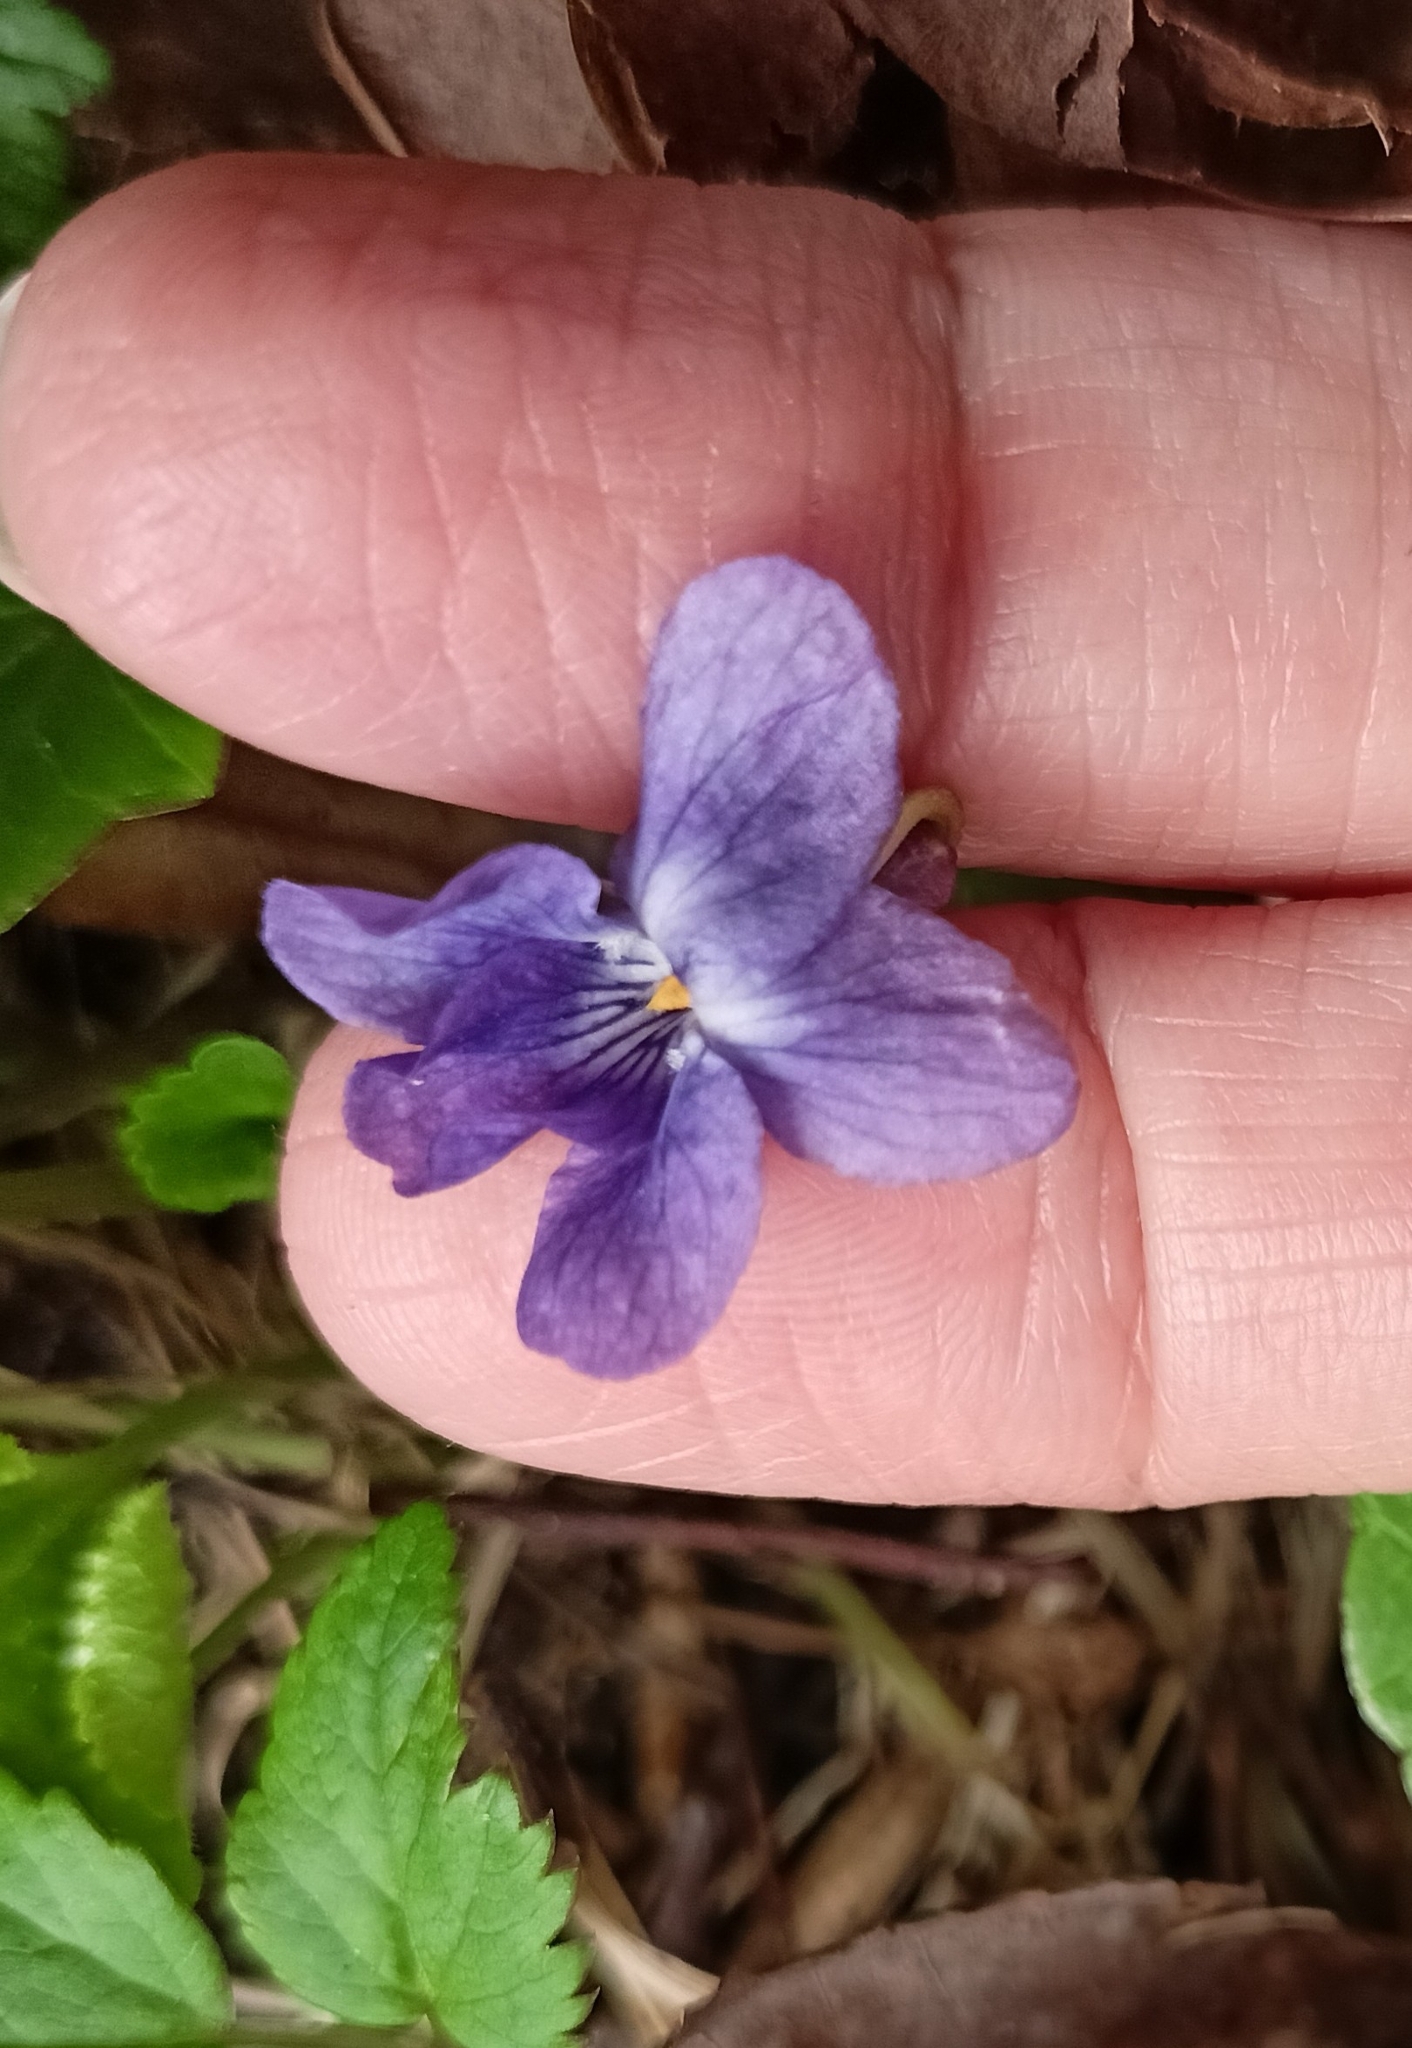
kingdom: Plantae
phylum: Tracheophyta
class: Magnoliopsida
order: Malpighiales
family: Violaceae
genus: Viola
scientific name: Viola odorata
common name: Sweet violet
